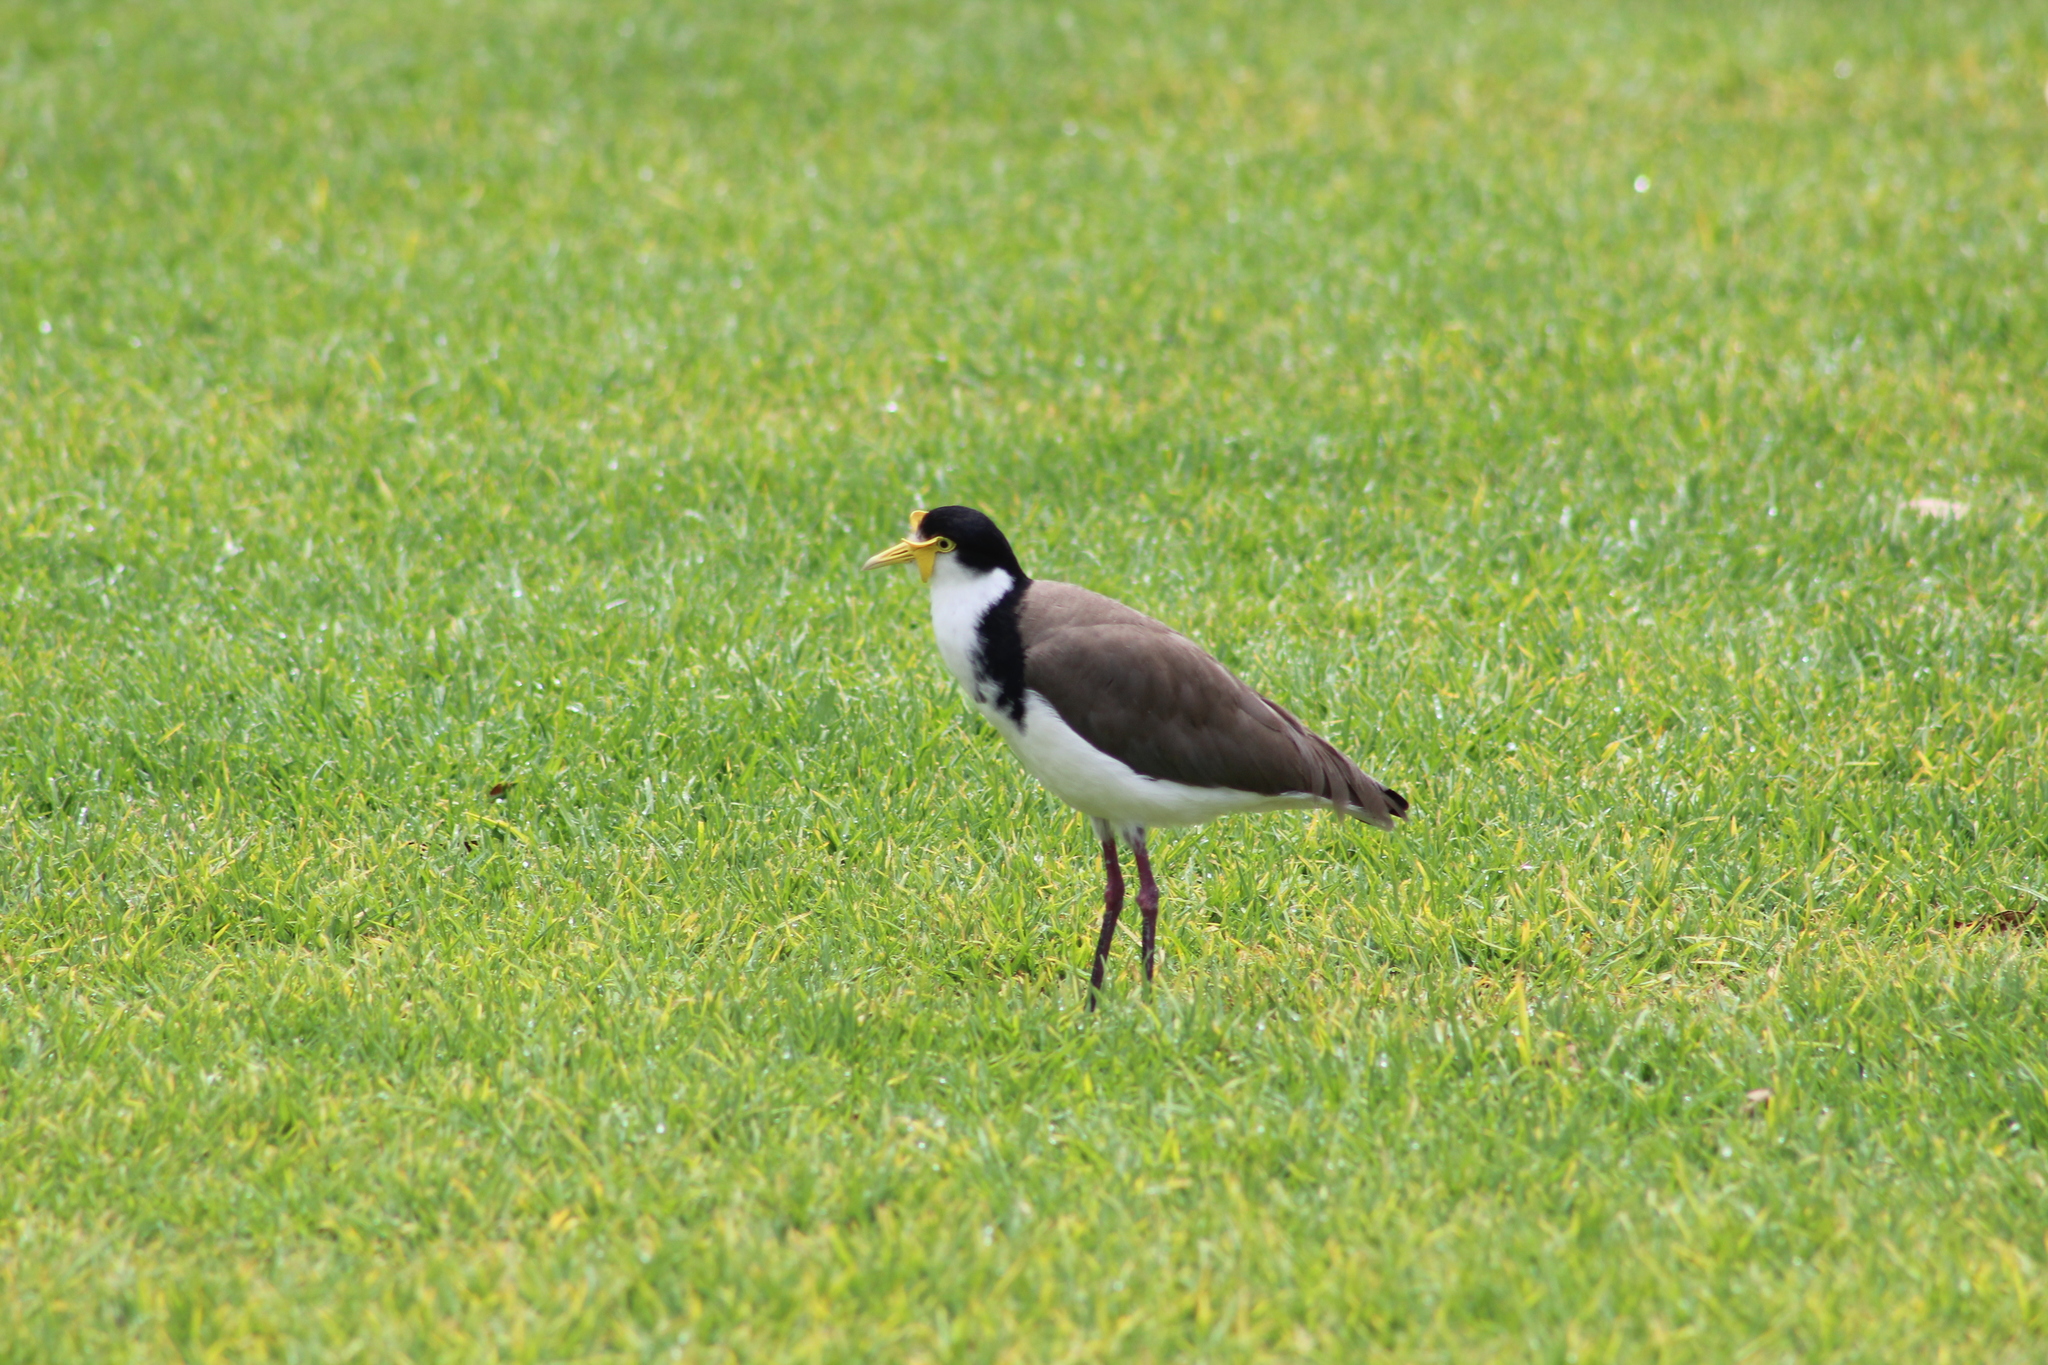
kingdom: Animalia
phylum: Chordata
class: Aves
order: Charadriiformes
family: Charadriidae
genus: Vanellus
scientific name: Vanellus miles
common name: Masked lapwing
